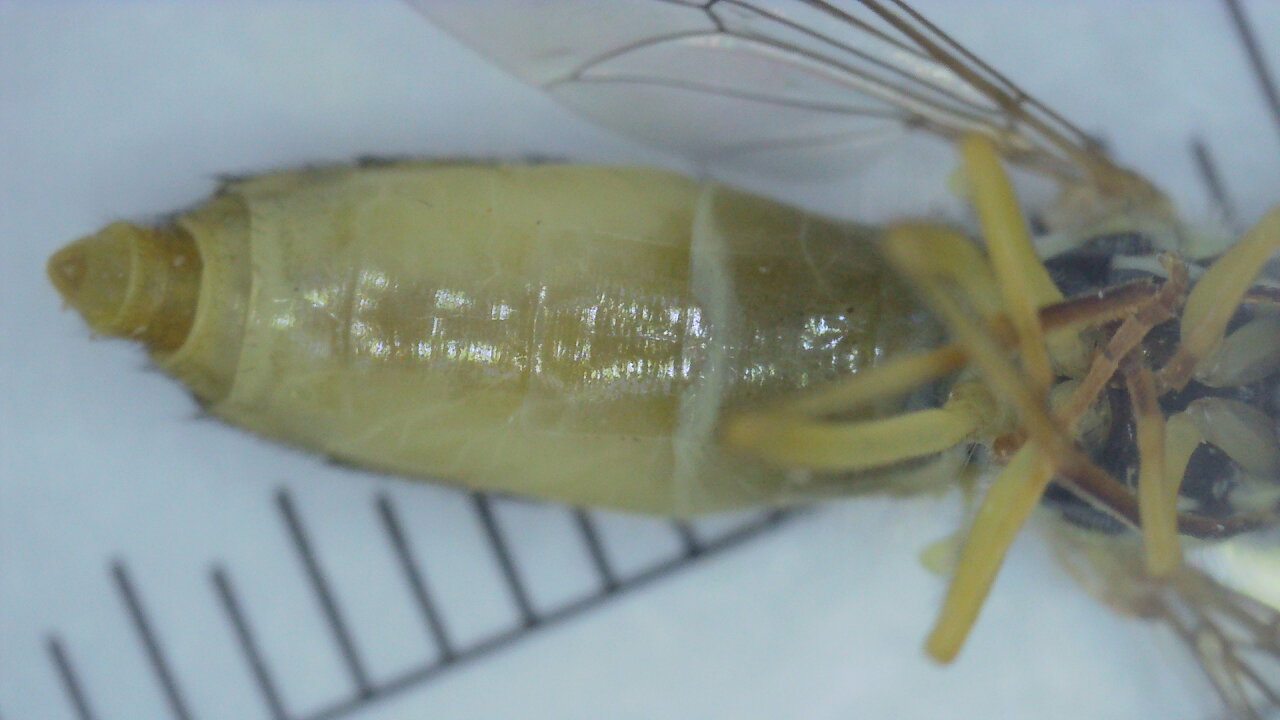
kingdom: Animalia
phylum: Arthropoda
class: Insecta
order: Diptera
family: Syrphidae
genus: Sphaerophoria
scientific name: Sphaerophoria
